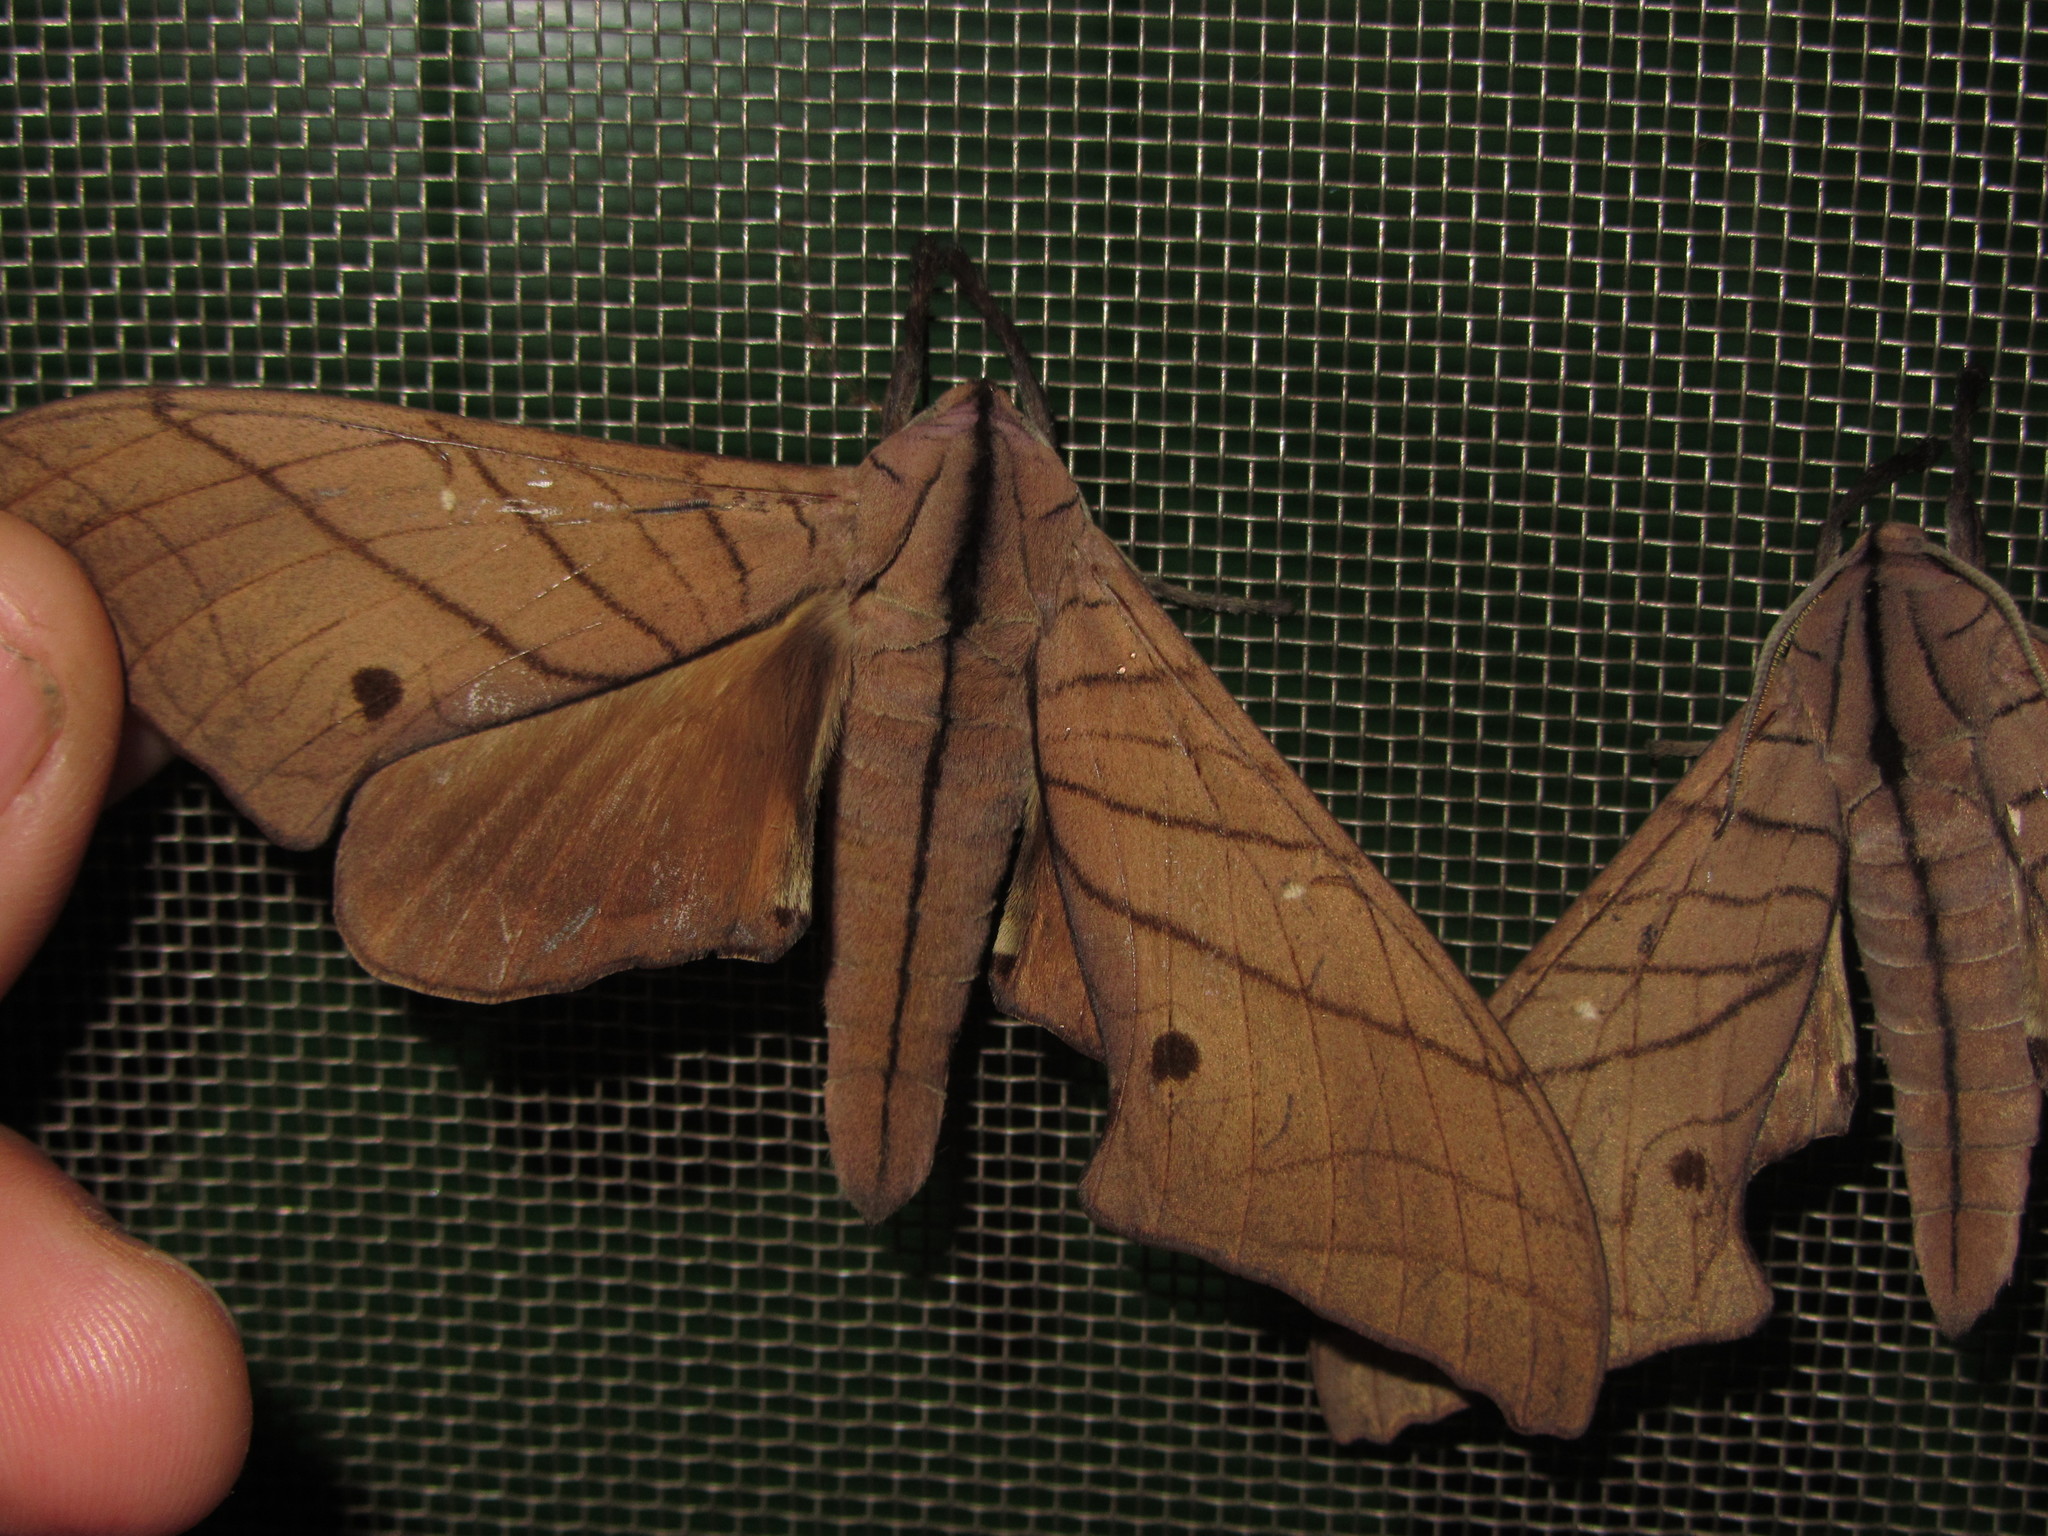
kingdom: Animalia
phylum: Arthropoda
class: Insecta
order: Lepidoptera
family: Sphingidae
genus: Marumba
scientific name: Marumba cristata
